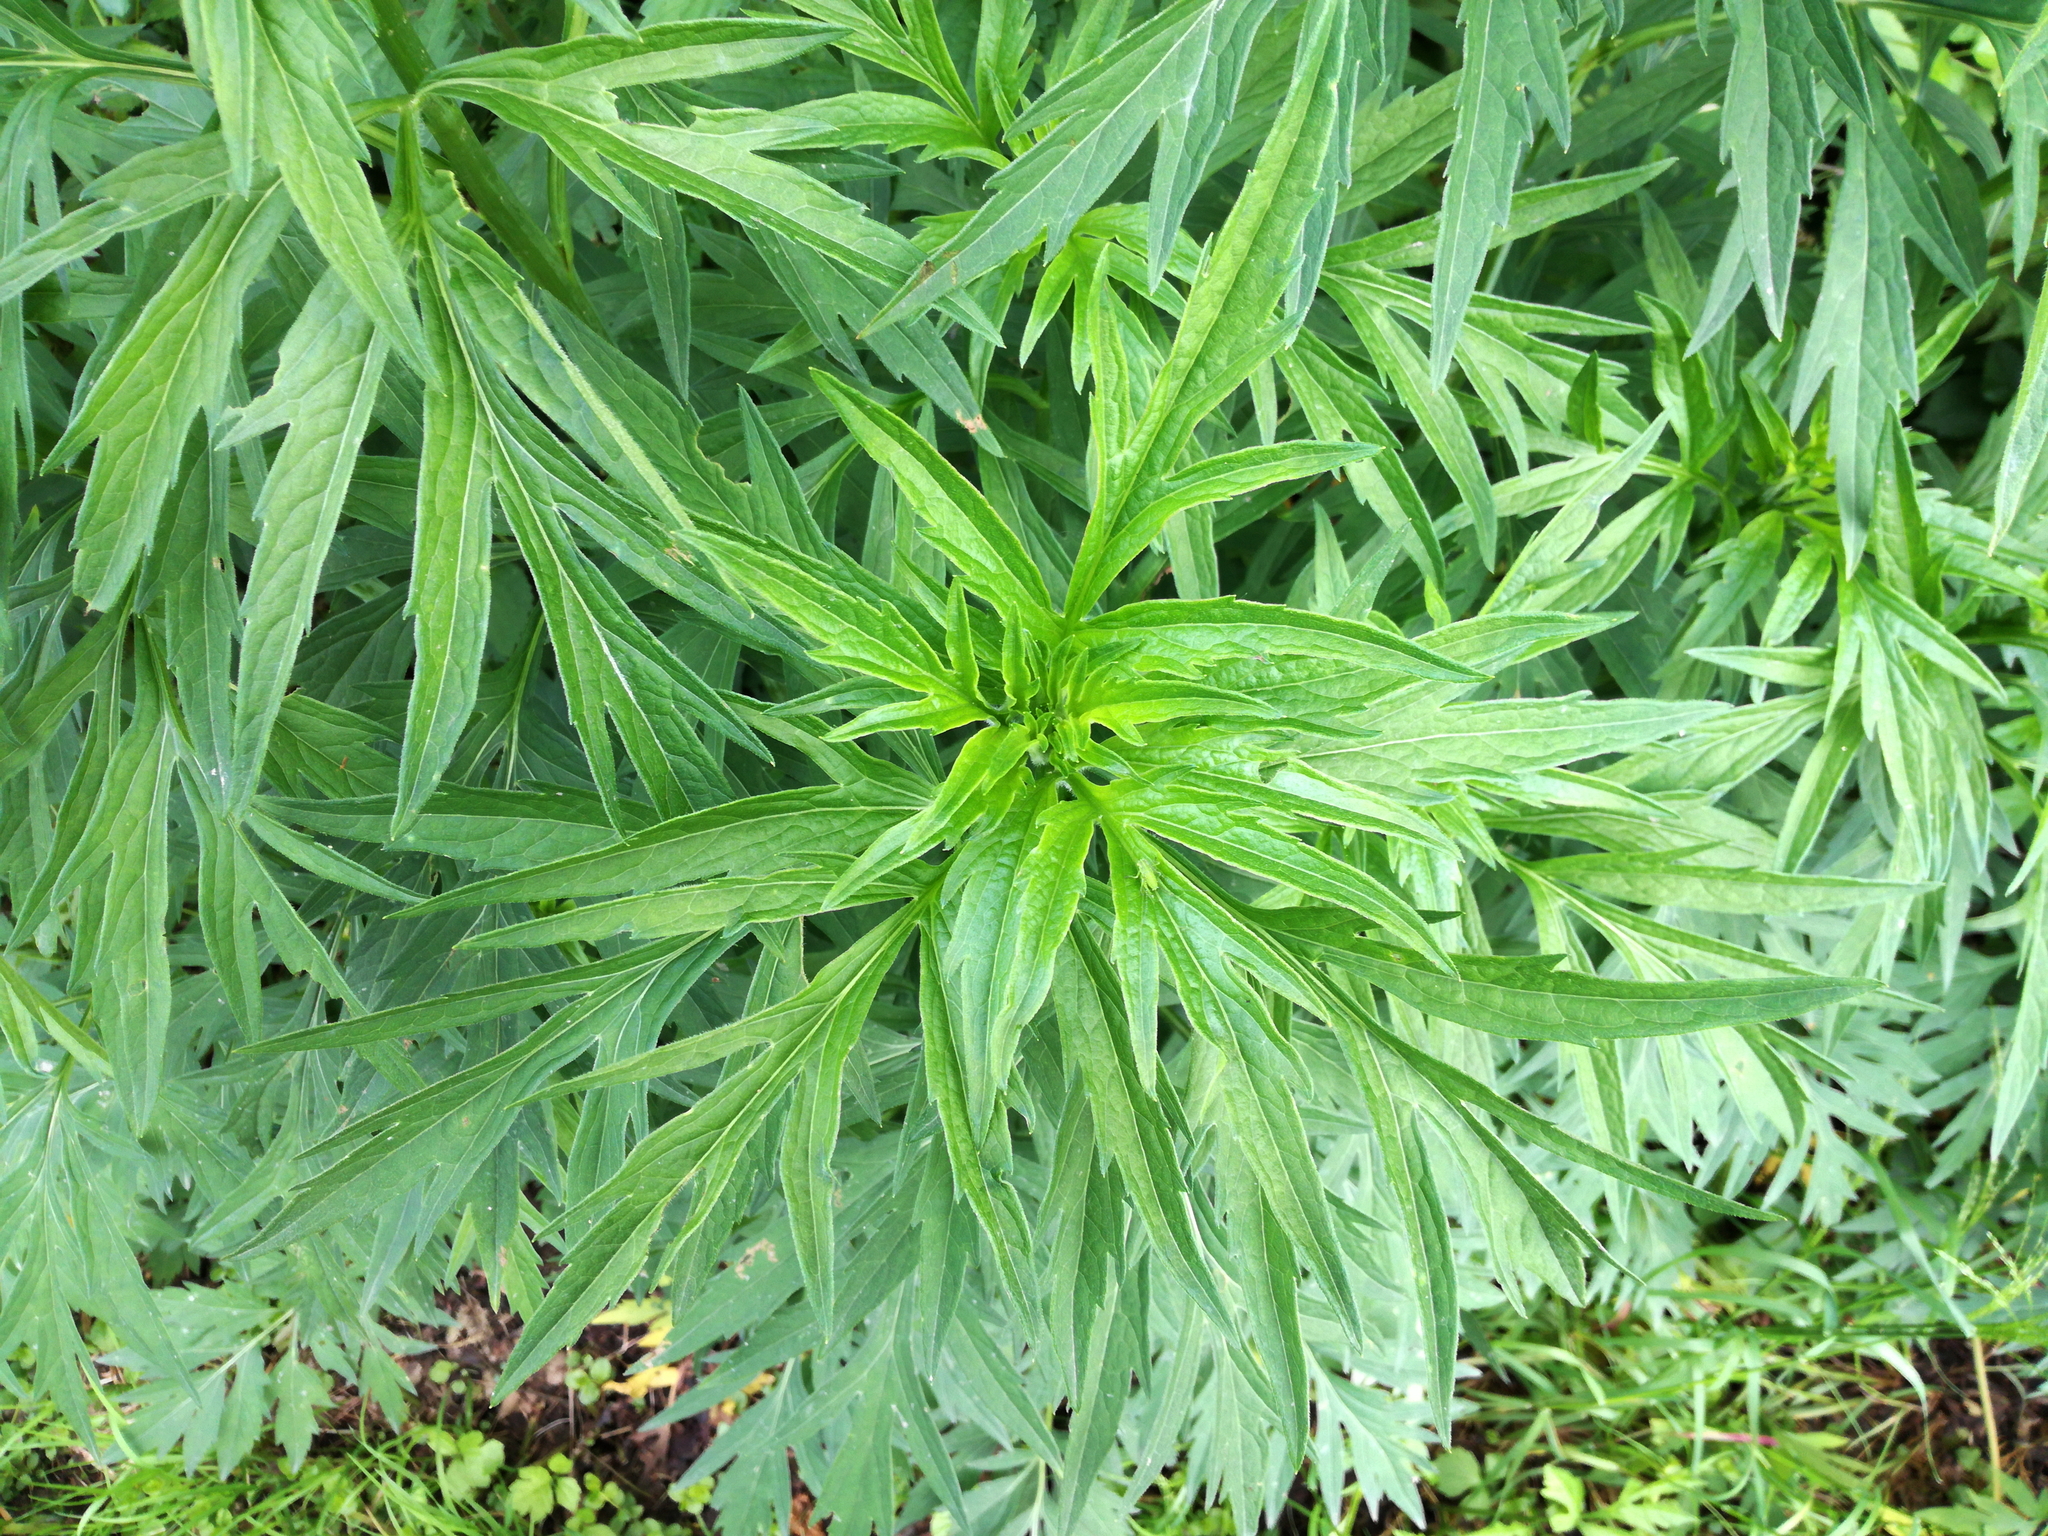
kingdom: Plantae
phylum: Tracheophyta
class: Magnoliopsida
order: Asterales
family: Asteraceae
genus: Rudbeckia
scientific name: Rudbeckia laciniata
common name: Coneflower
